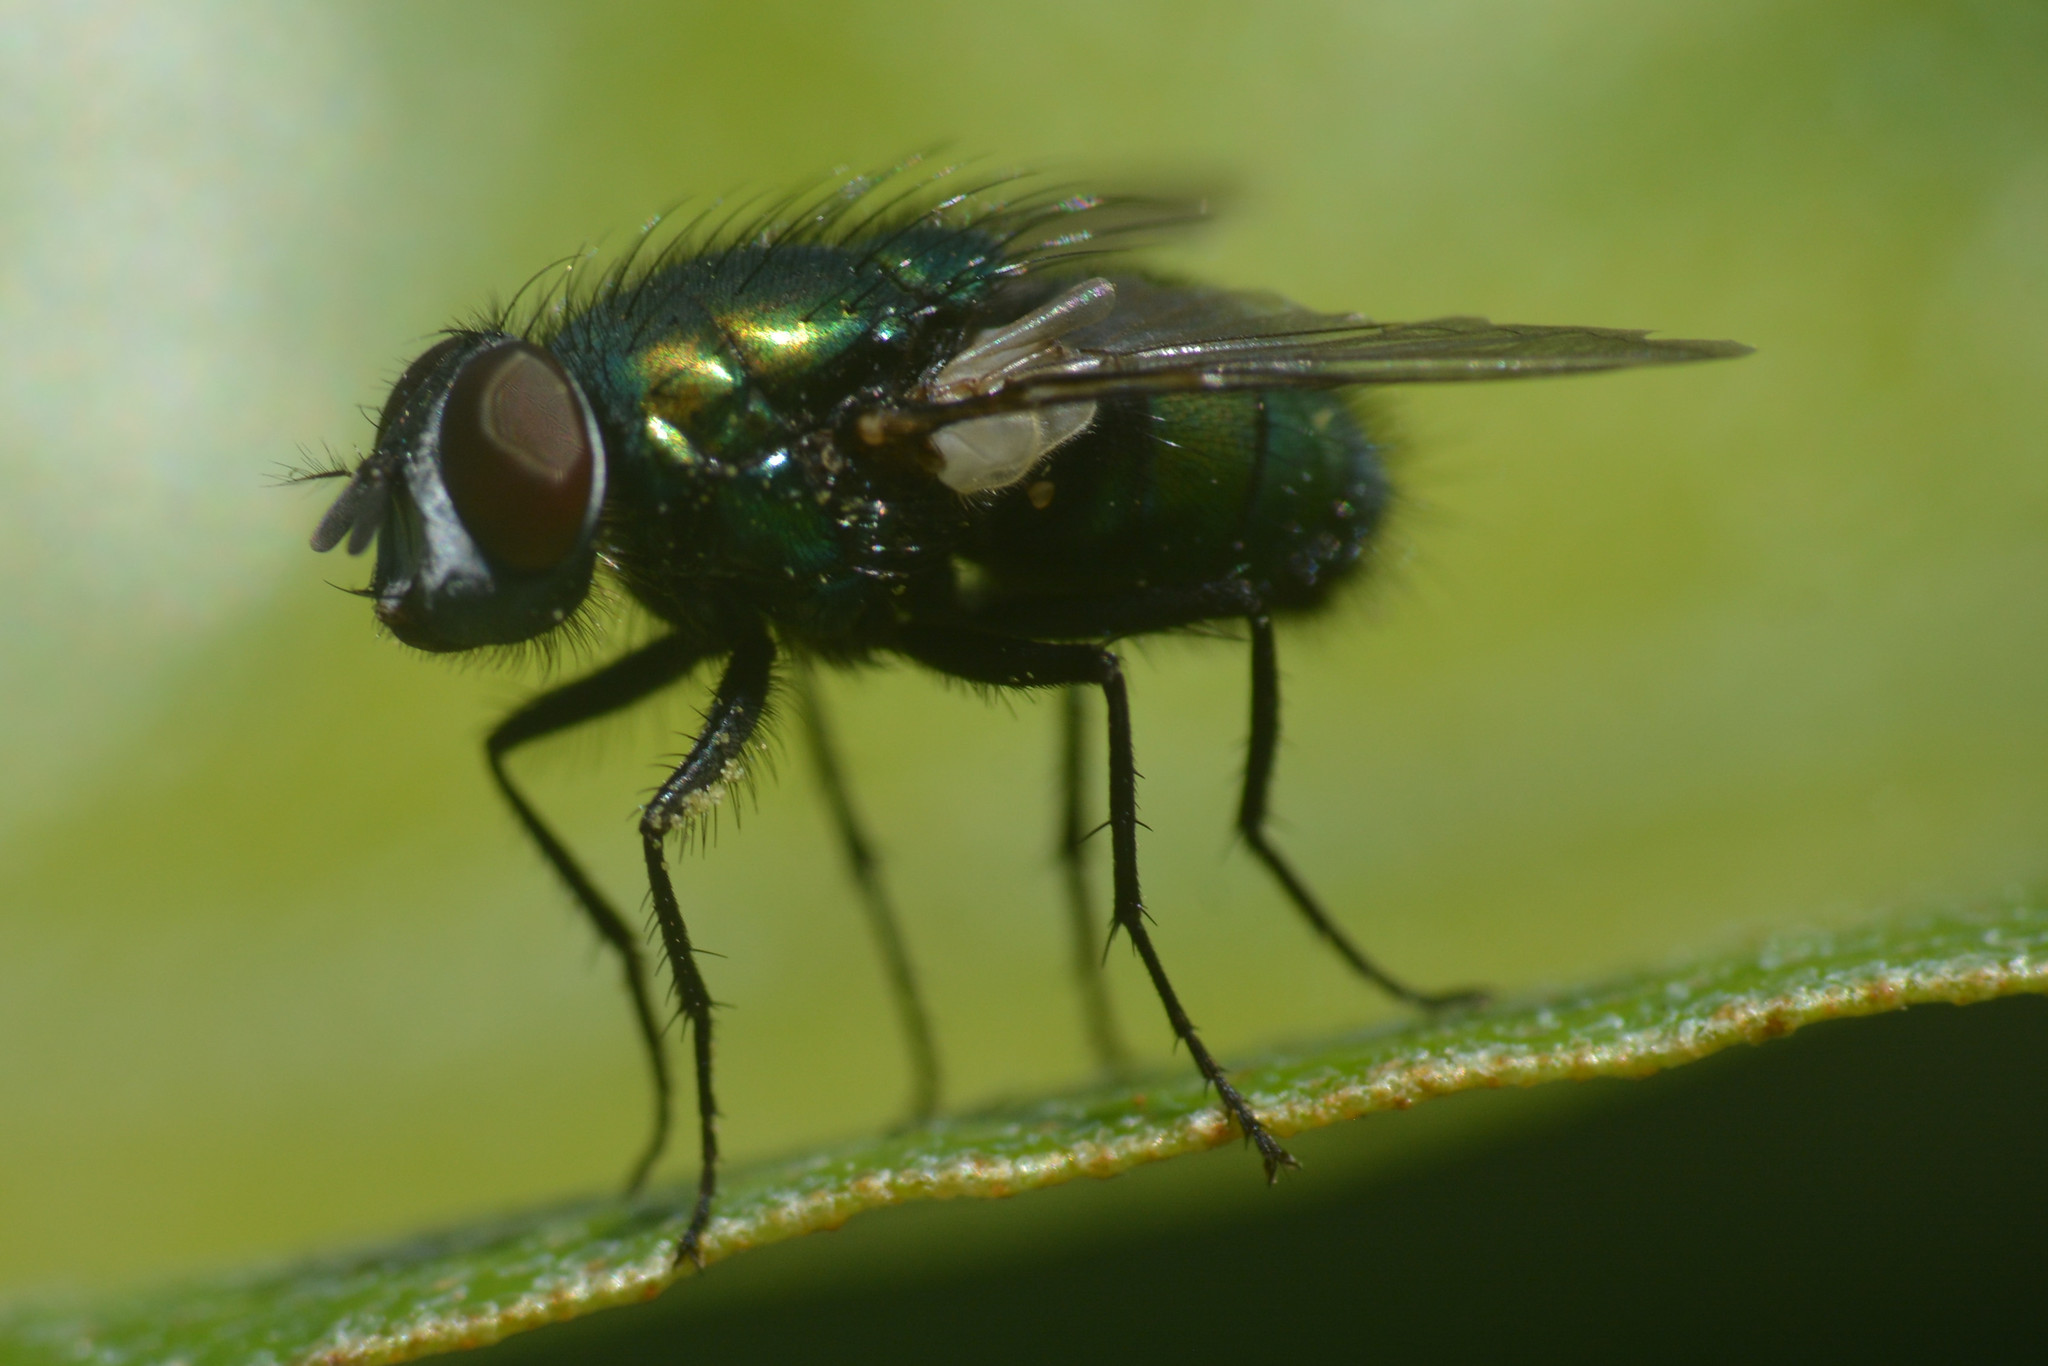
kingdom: Animalia
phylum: Arthropoda
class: Insecta
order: Diptera
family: Calliphoridae
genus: Lucilia
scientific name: Lucilia sericata
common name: Blow fly
